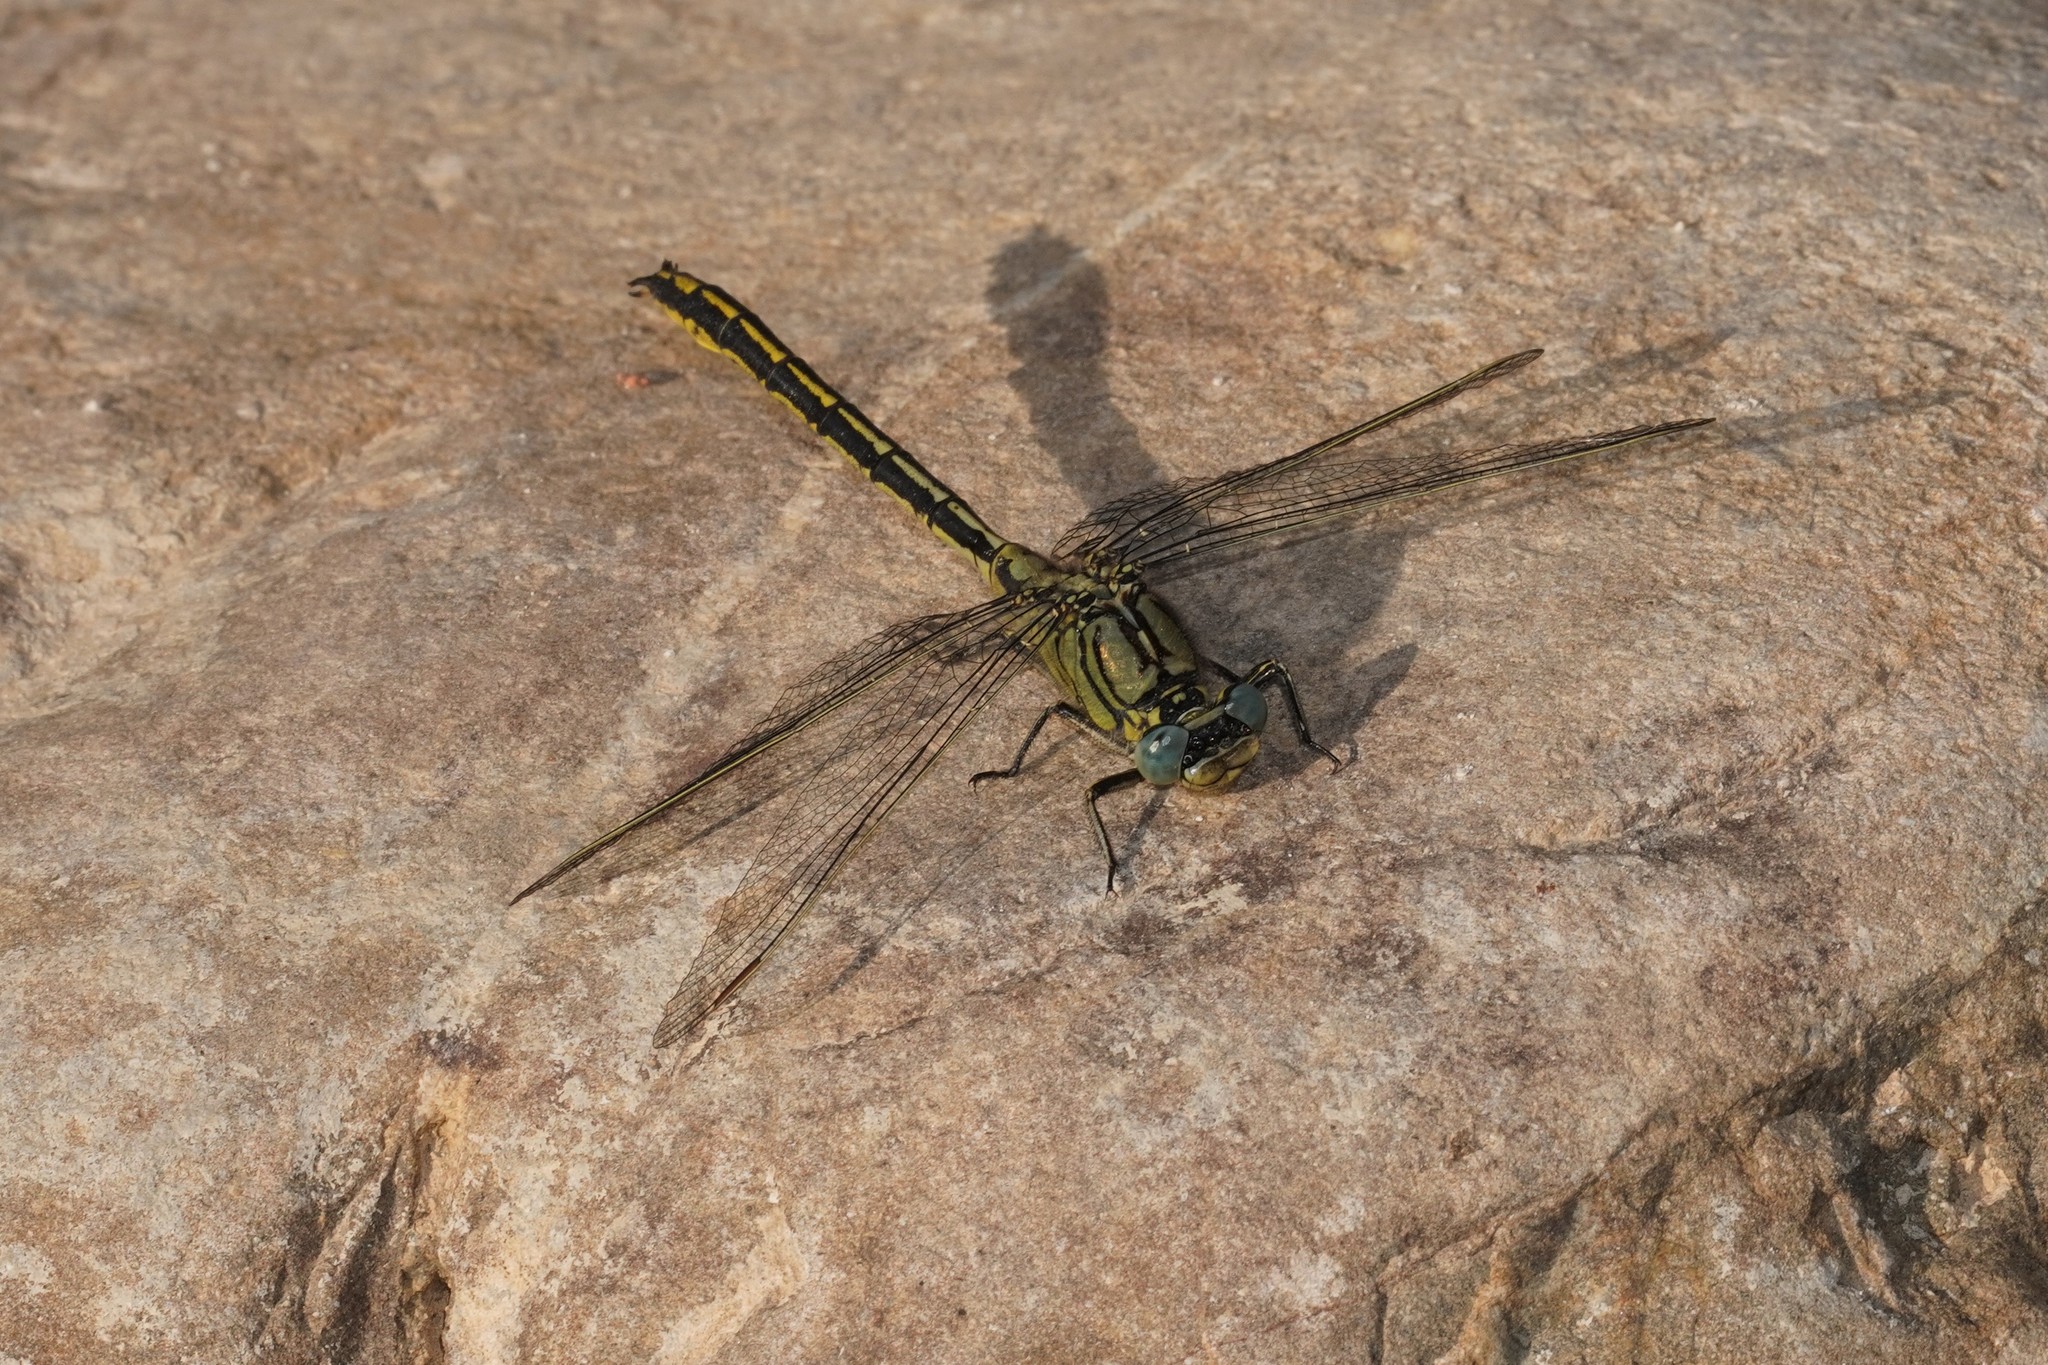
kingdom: Animalia
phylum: Arthropoda
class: Insecta
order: Odonata
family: Gomphidae
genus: Gomphus
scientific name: Gomphus pulchellus
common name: Western clubtail
